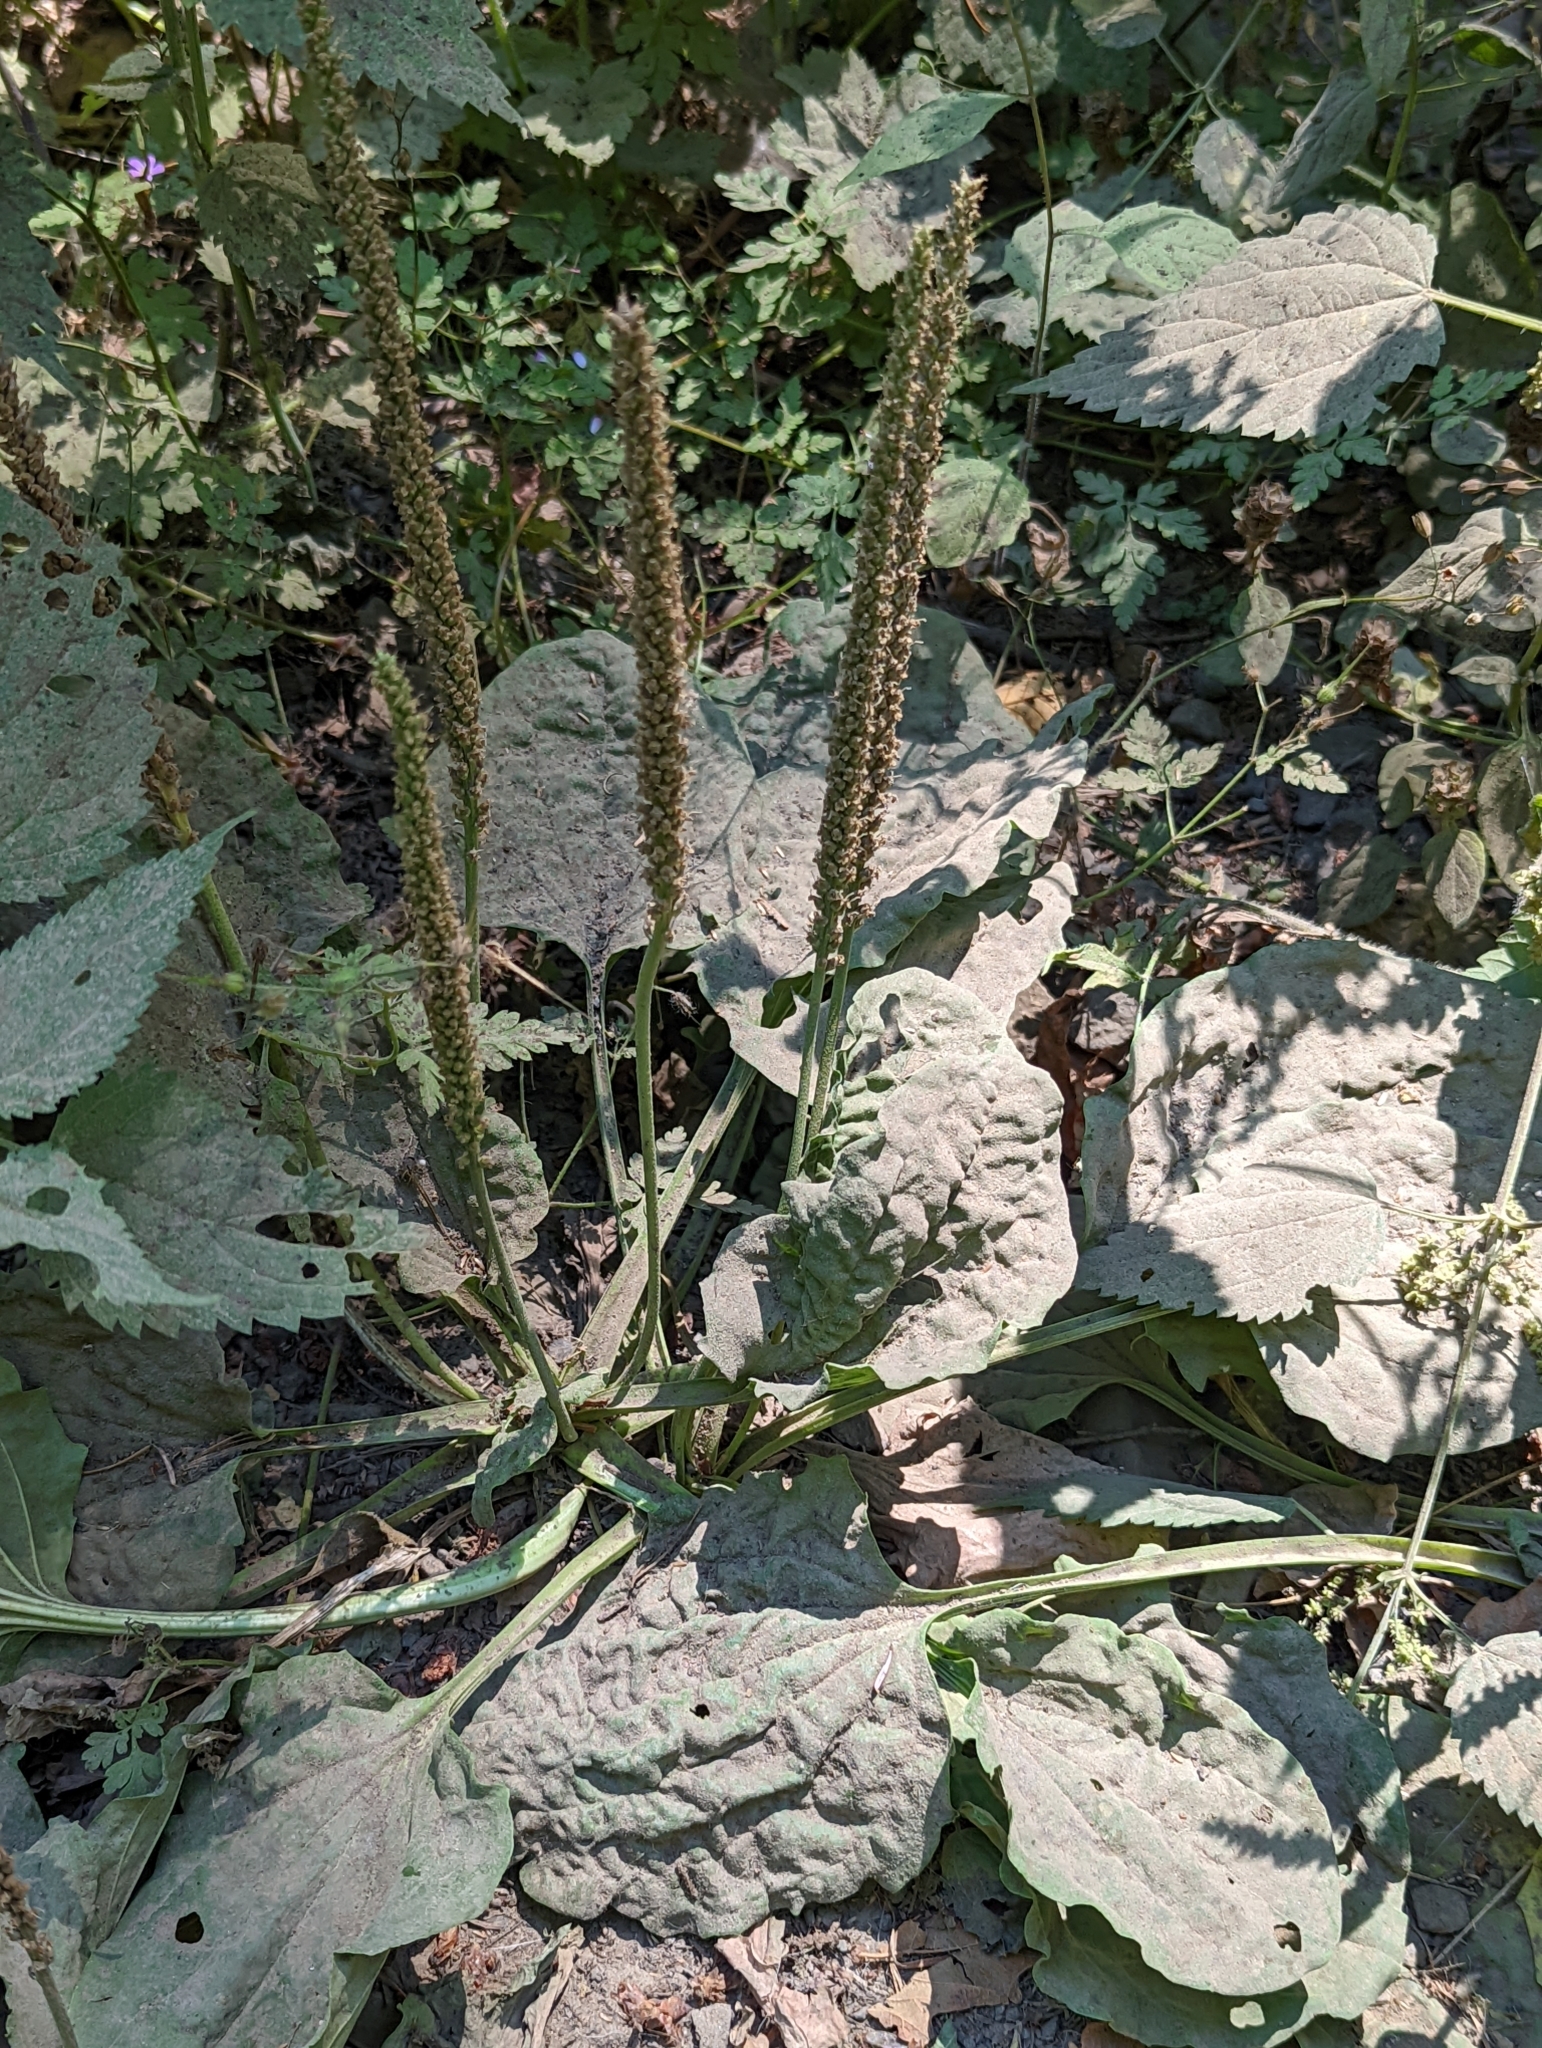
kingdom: Plantae
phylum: Tracheophyta
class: Magnoliopsida
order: Lamiales
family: Plantaginaceae
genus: Plantago
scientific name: Plantago major
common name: Common plantain
